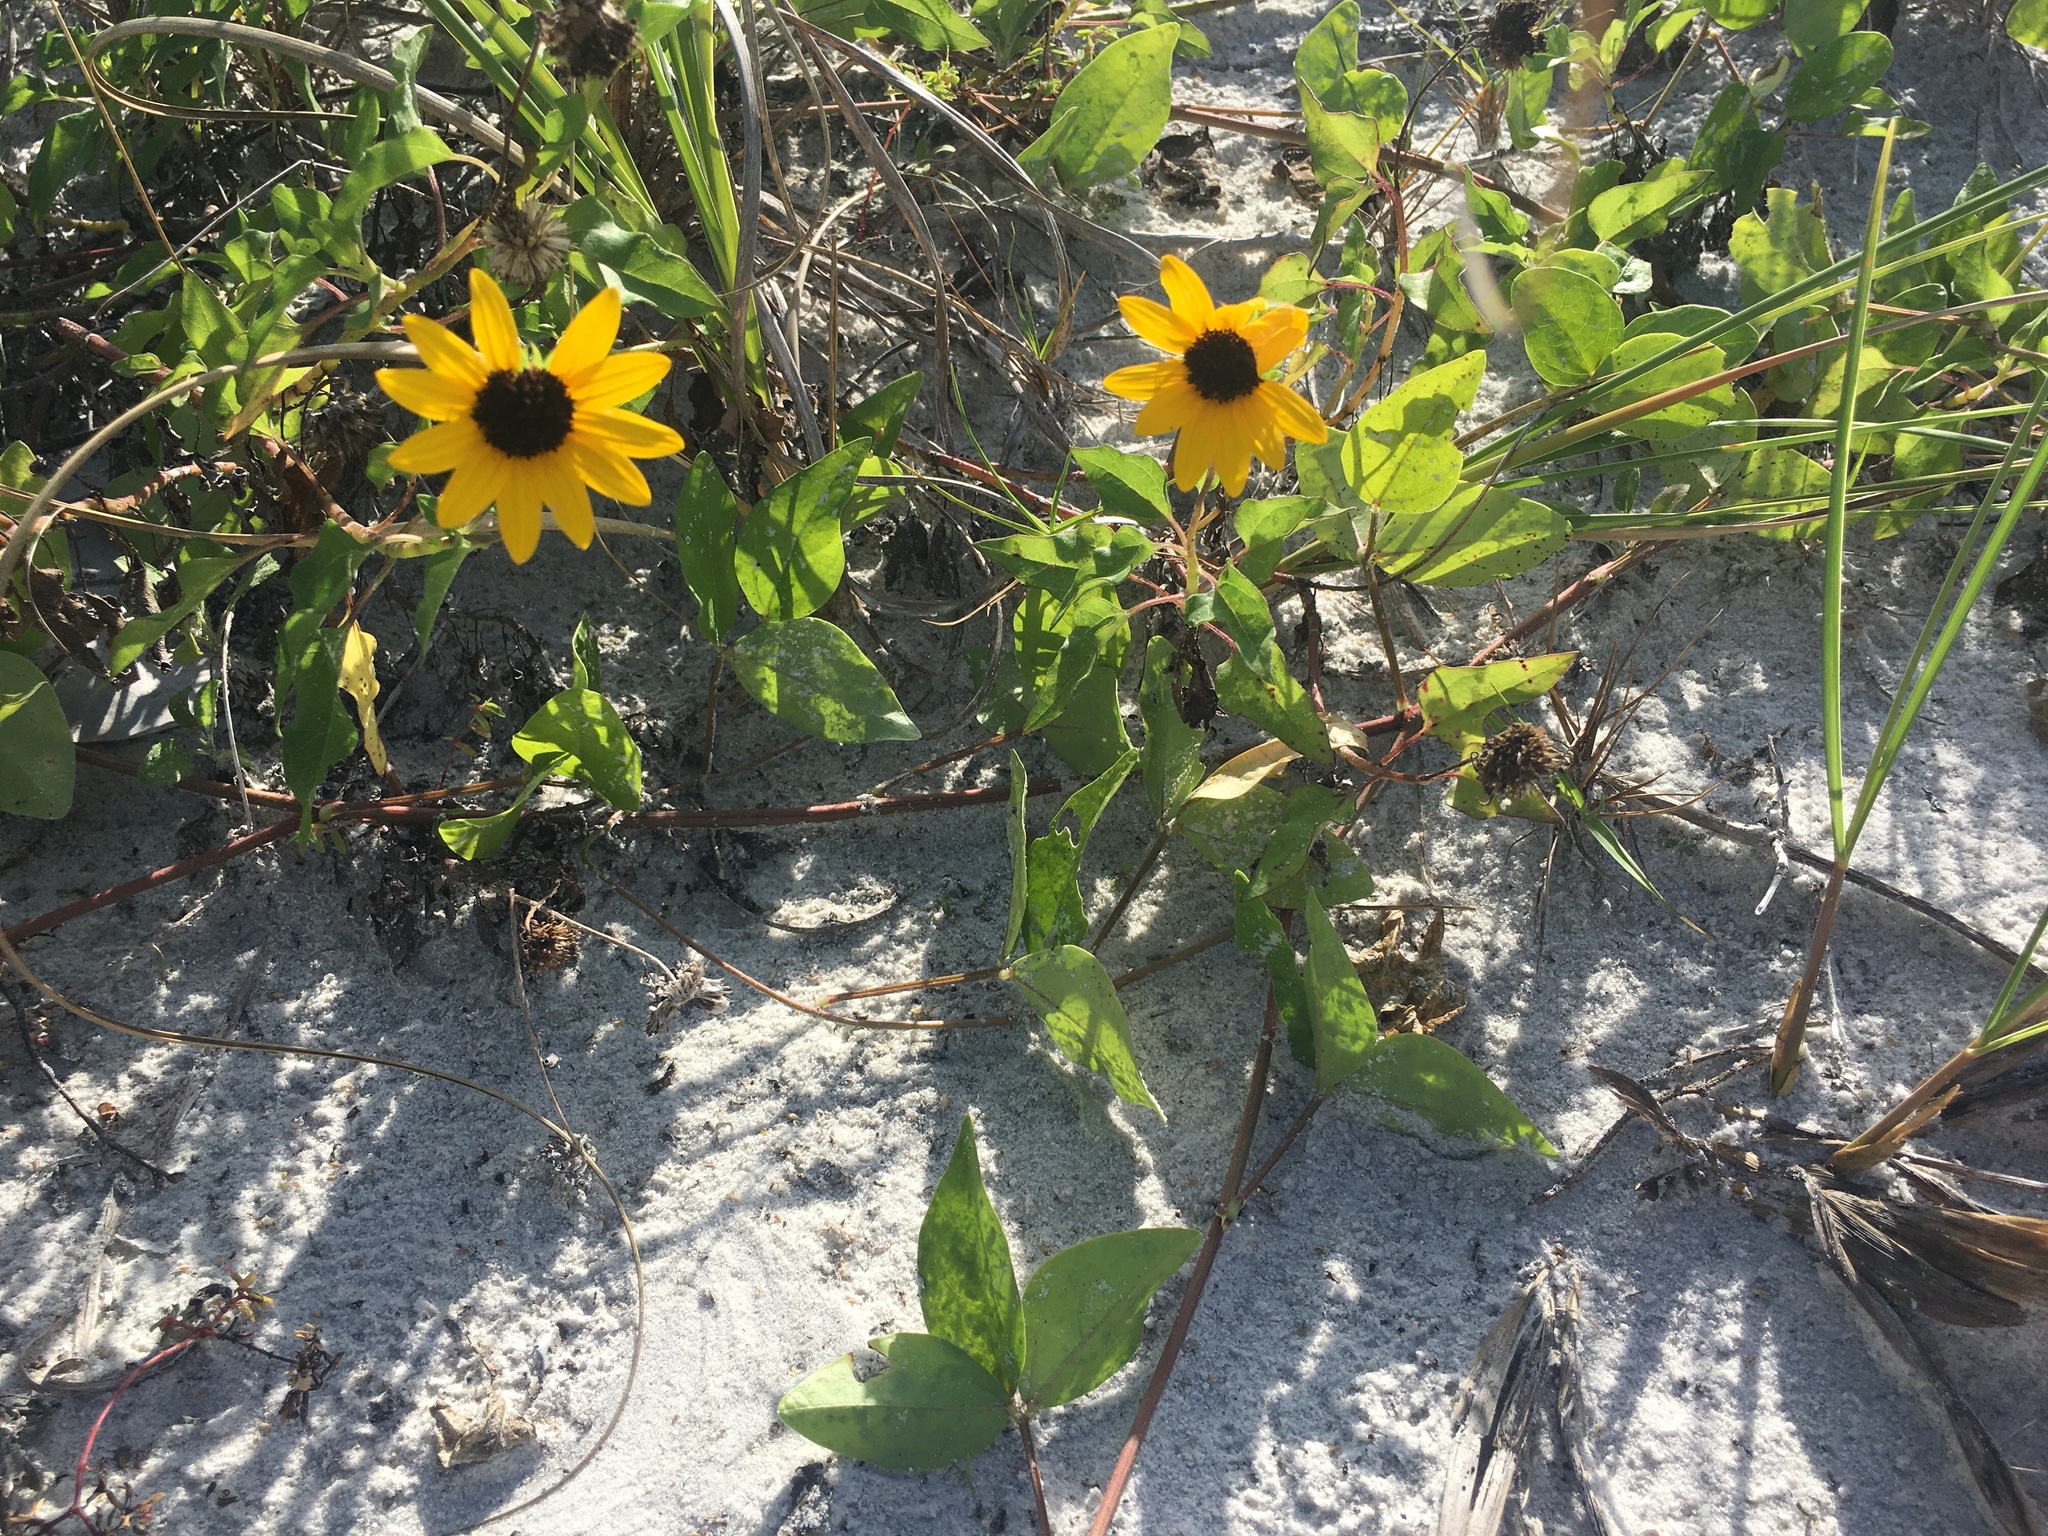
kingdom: Plantae
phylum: Tracheophyta
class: Magnoliopsida
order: Asterales
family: Asteraceae
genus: Helianthus
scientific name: Helianthus debilis
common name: Weak sunflower
